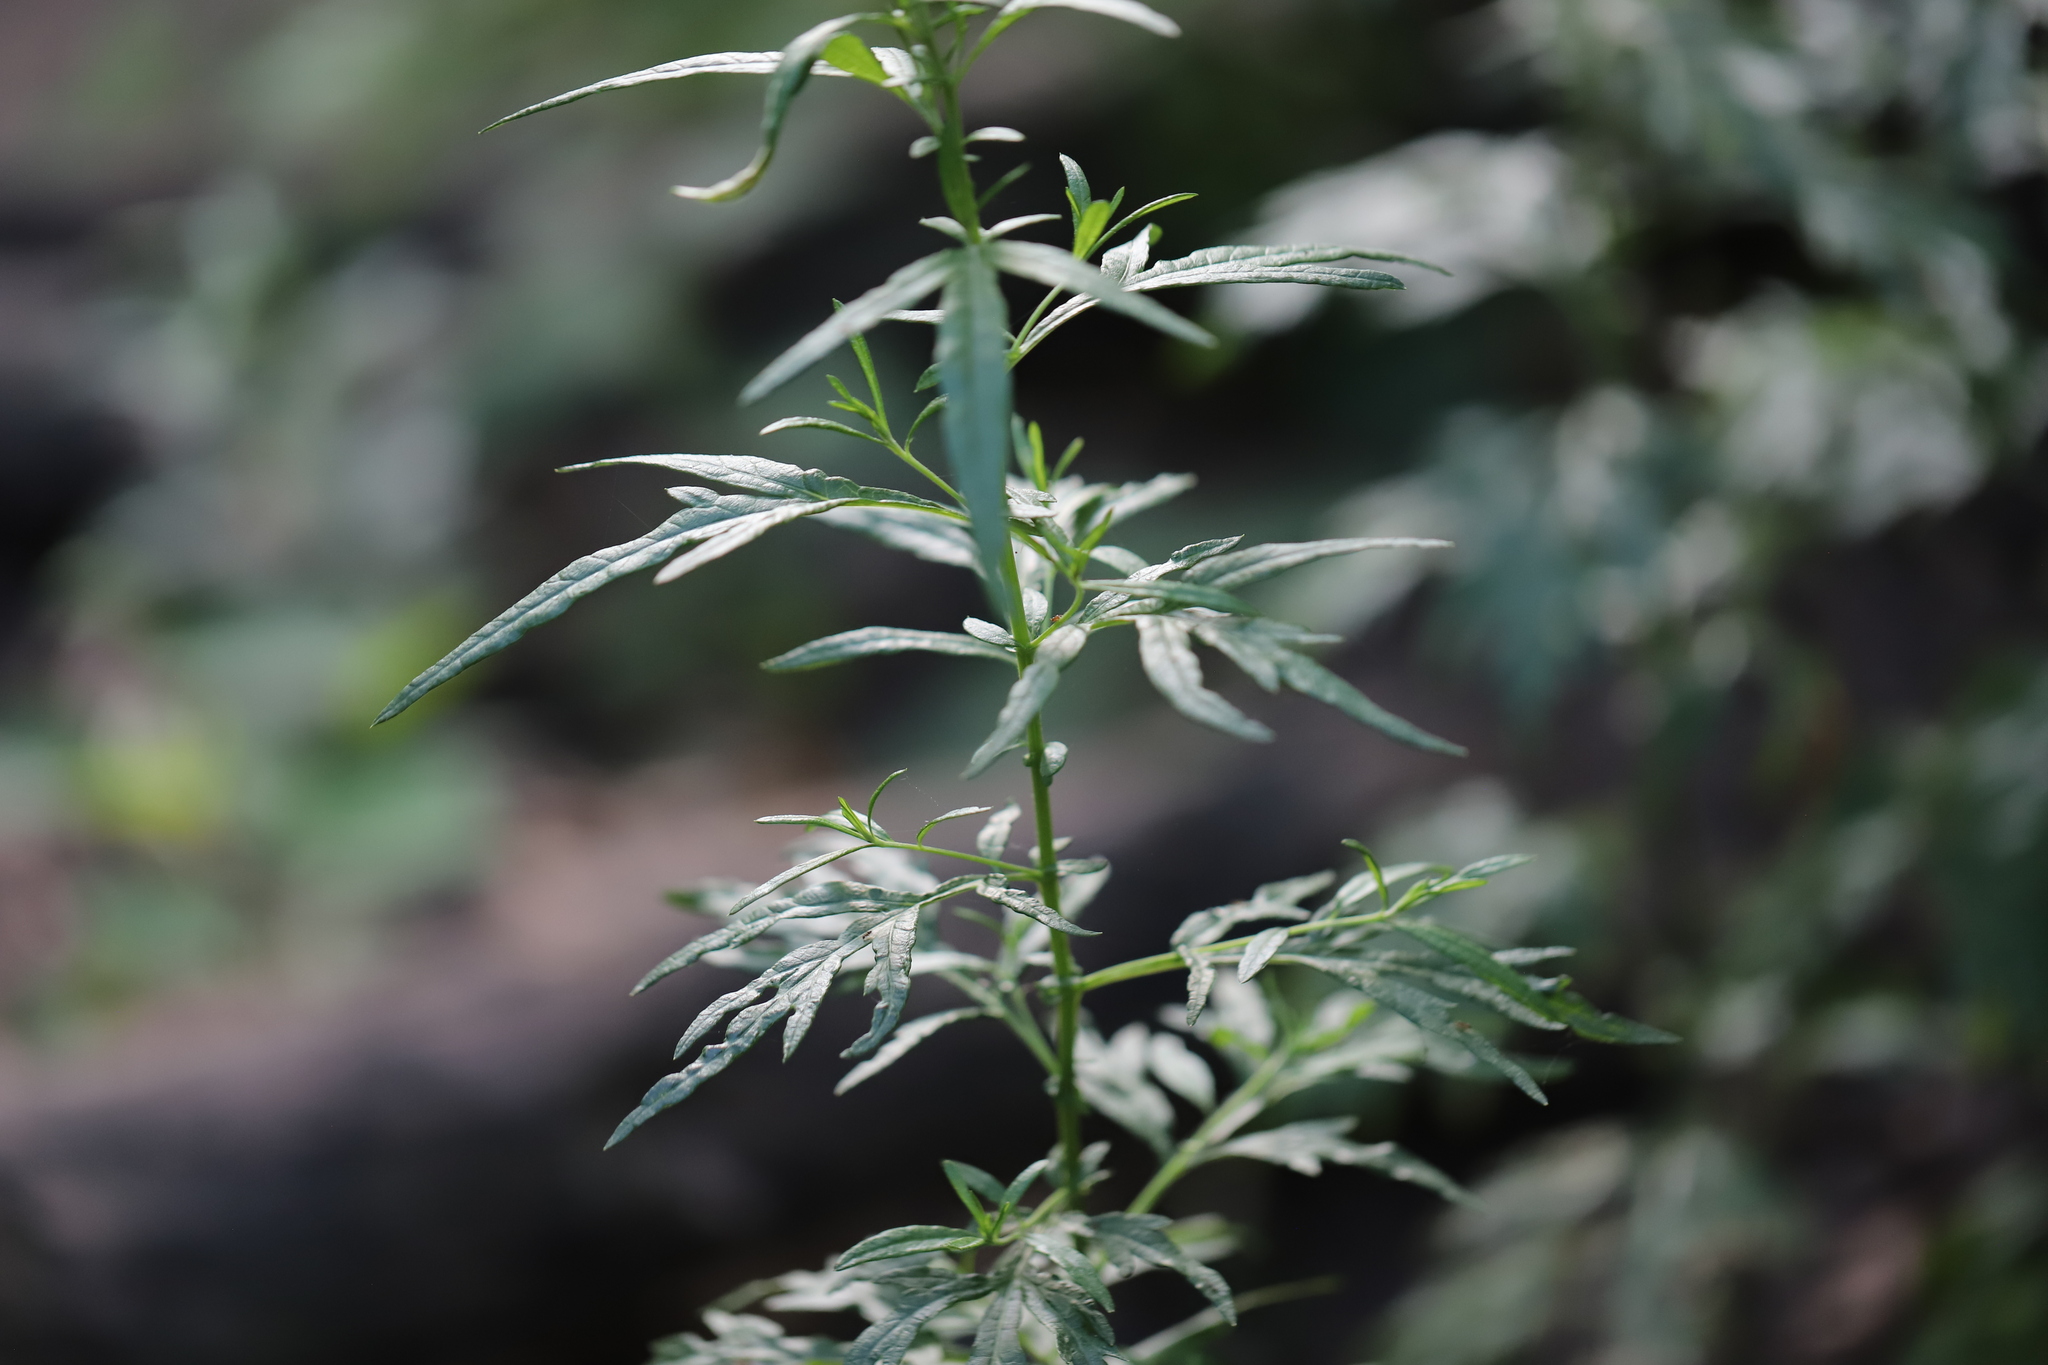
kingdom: Plantae
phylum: Tracheophyta
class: Magnoliopsida
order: Asterales
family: Asteraceae
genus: Artemisia
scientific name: Artemisia vulgaris
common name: Mugwort
